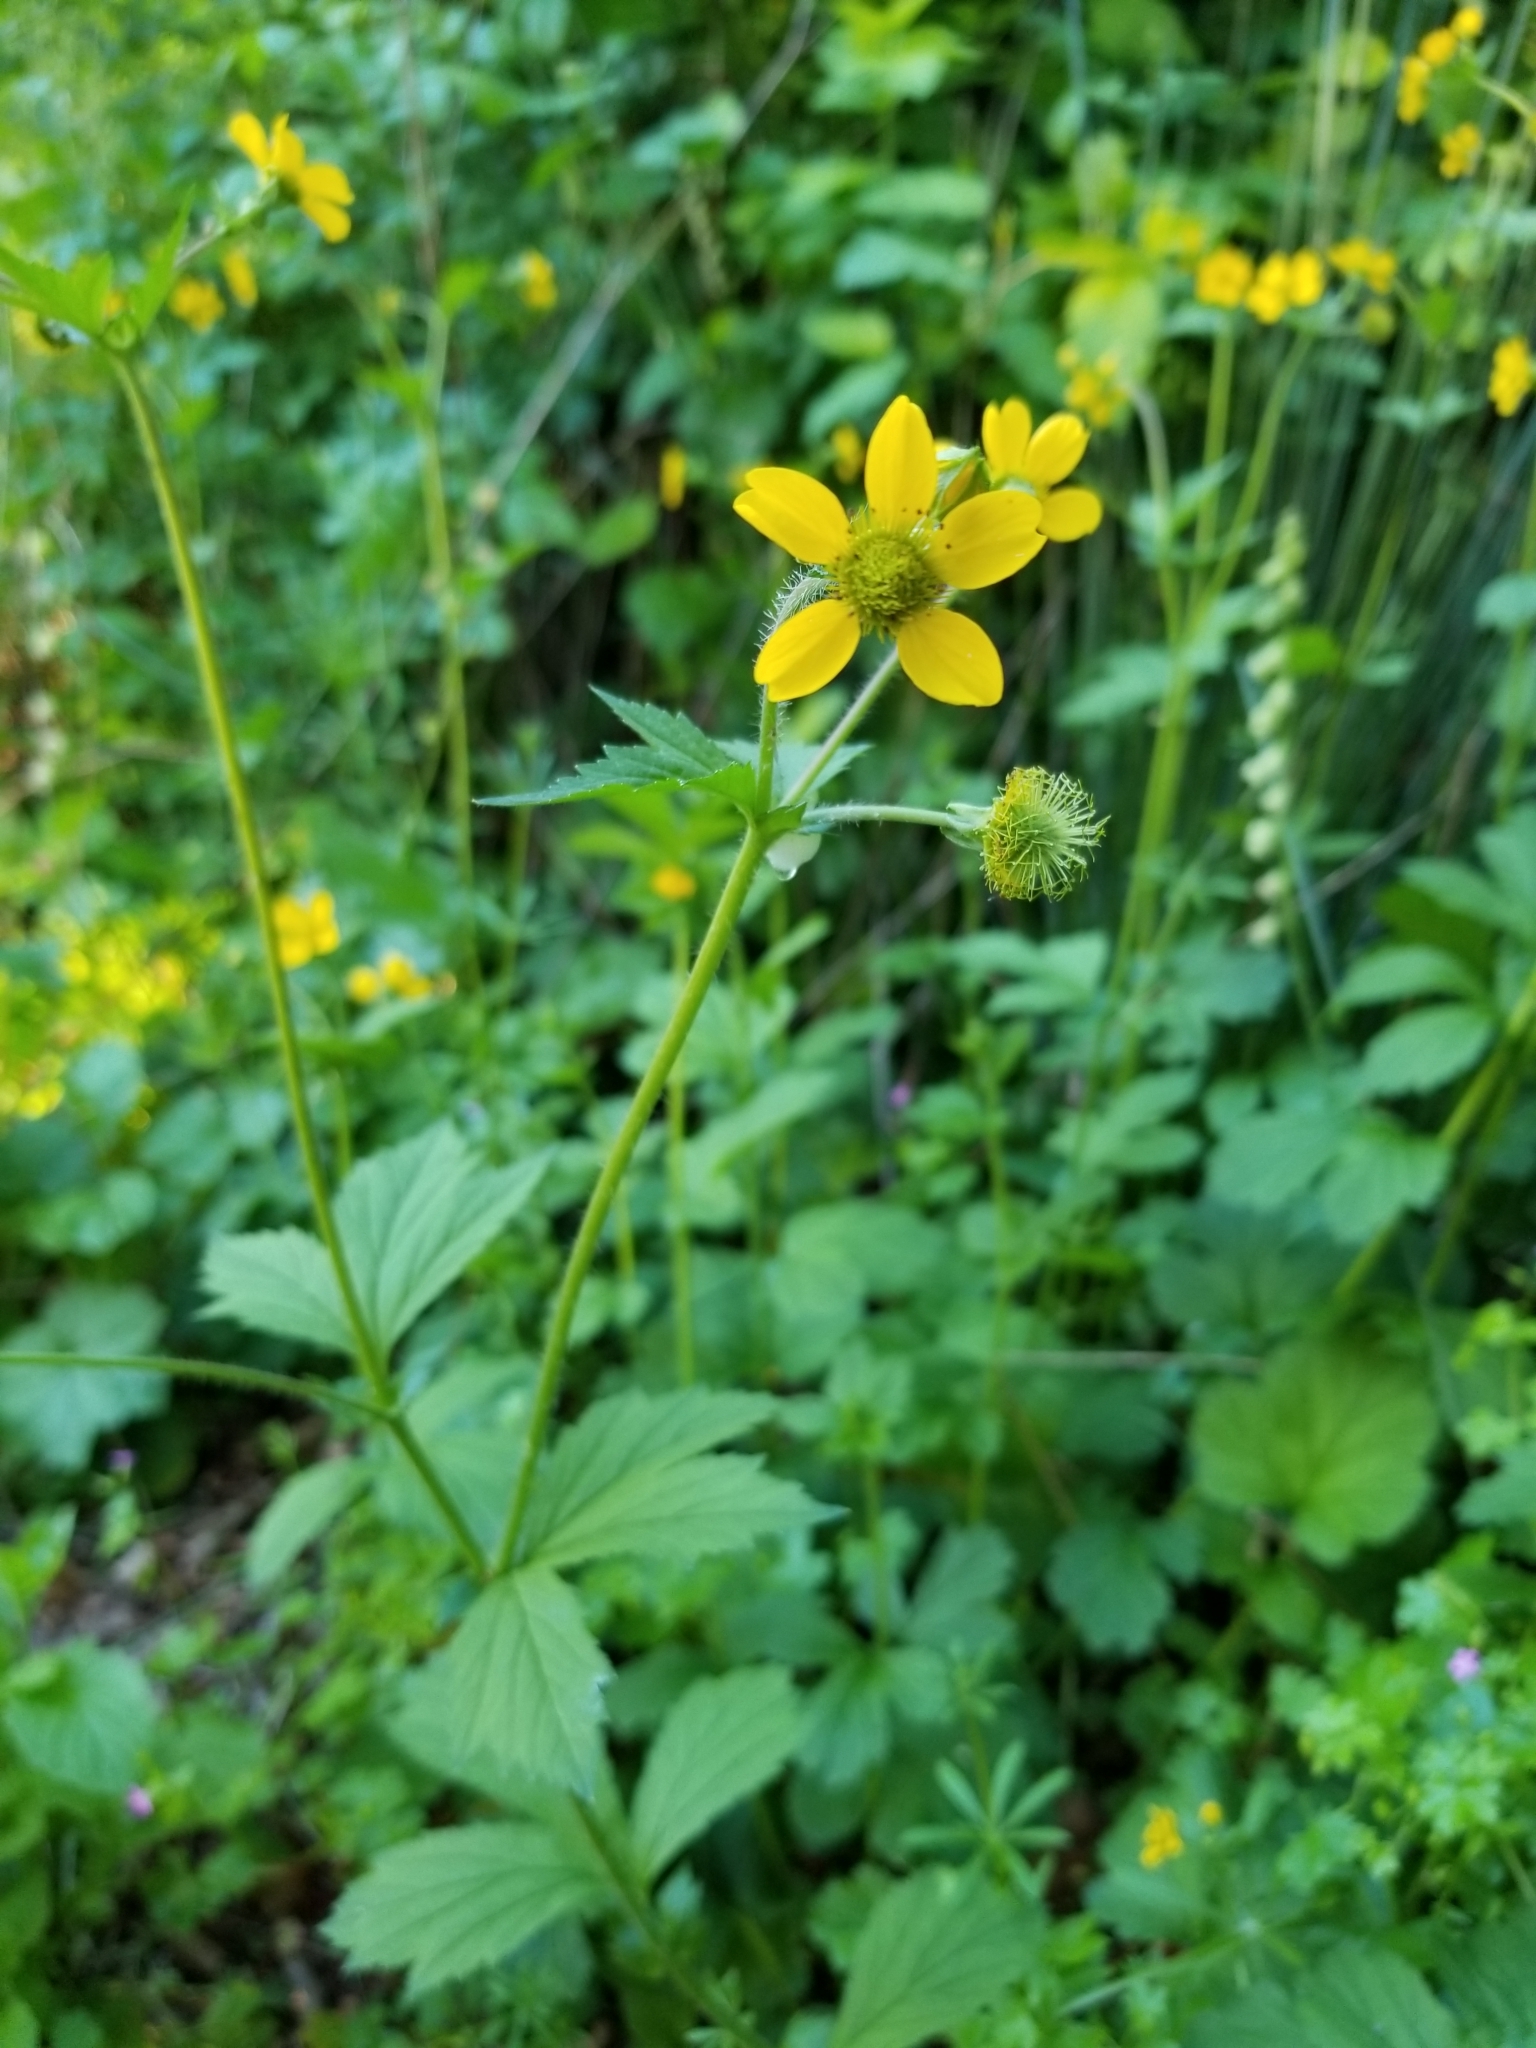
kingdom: Plantae
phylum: Tracheophyta
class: Magnoliopsida
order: Rosales
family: Rosaceae
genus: Geum
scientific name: Geum urbanum
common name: Wood avens
